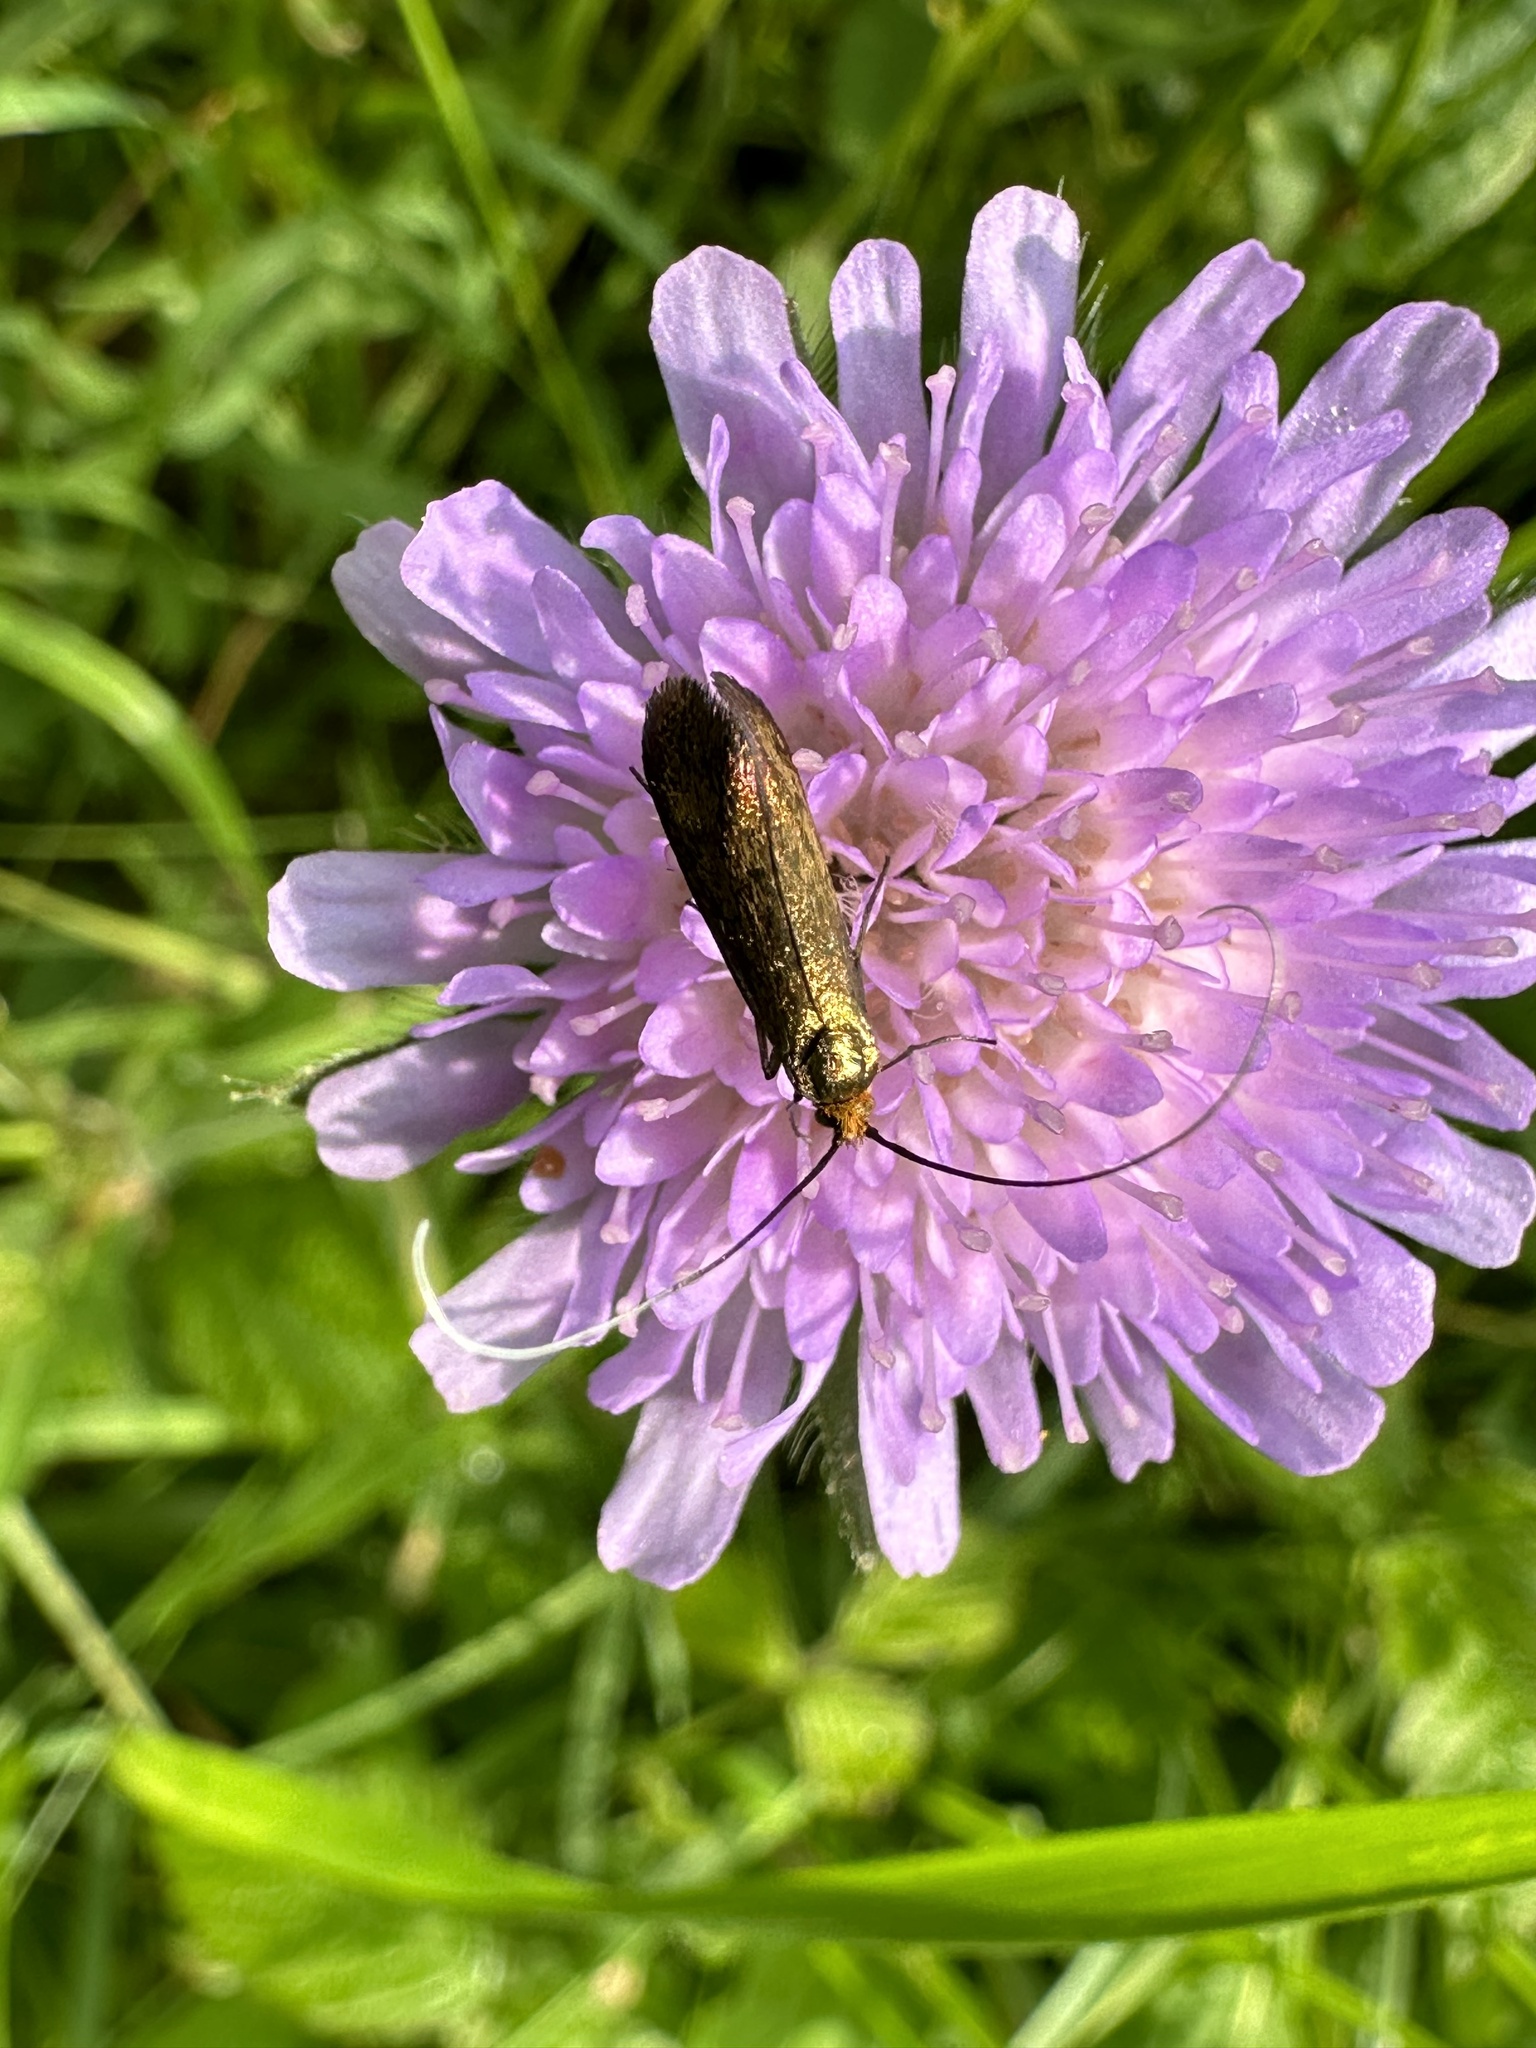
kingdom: Animalia
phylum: Arthropoda
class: Insecta
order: Lepidoptera
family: Adelidae
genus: Nemophora
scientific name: Nemophora metallica
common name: Brassy long-horn
